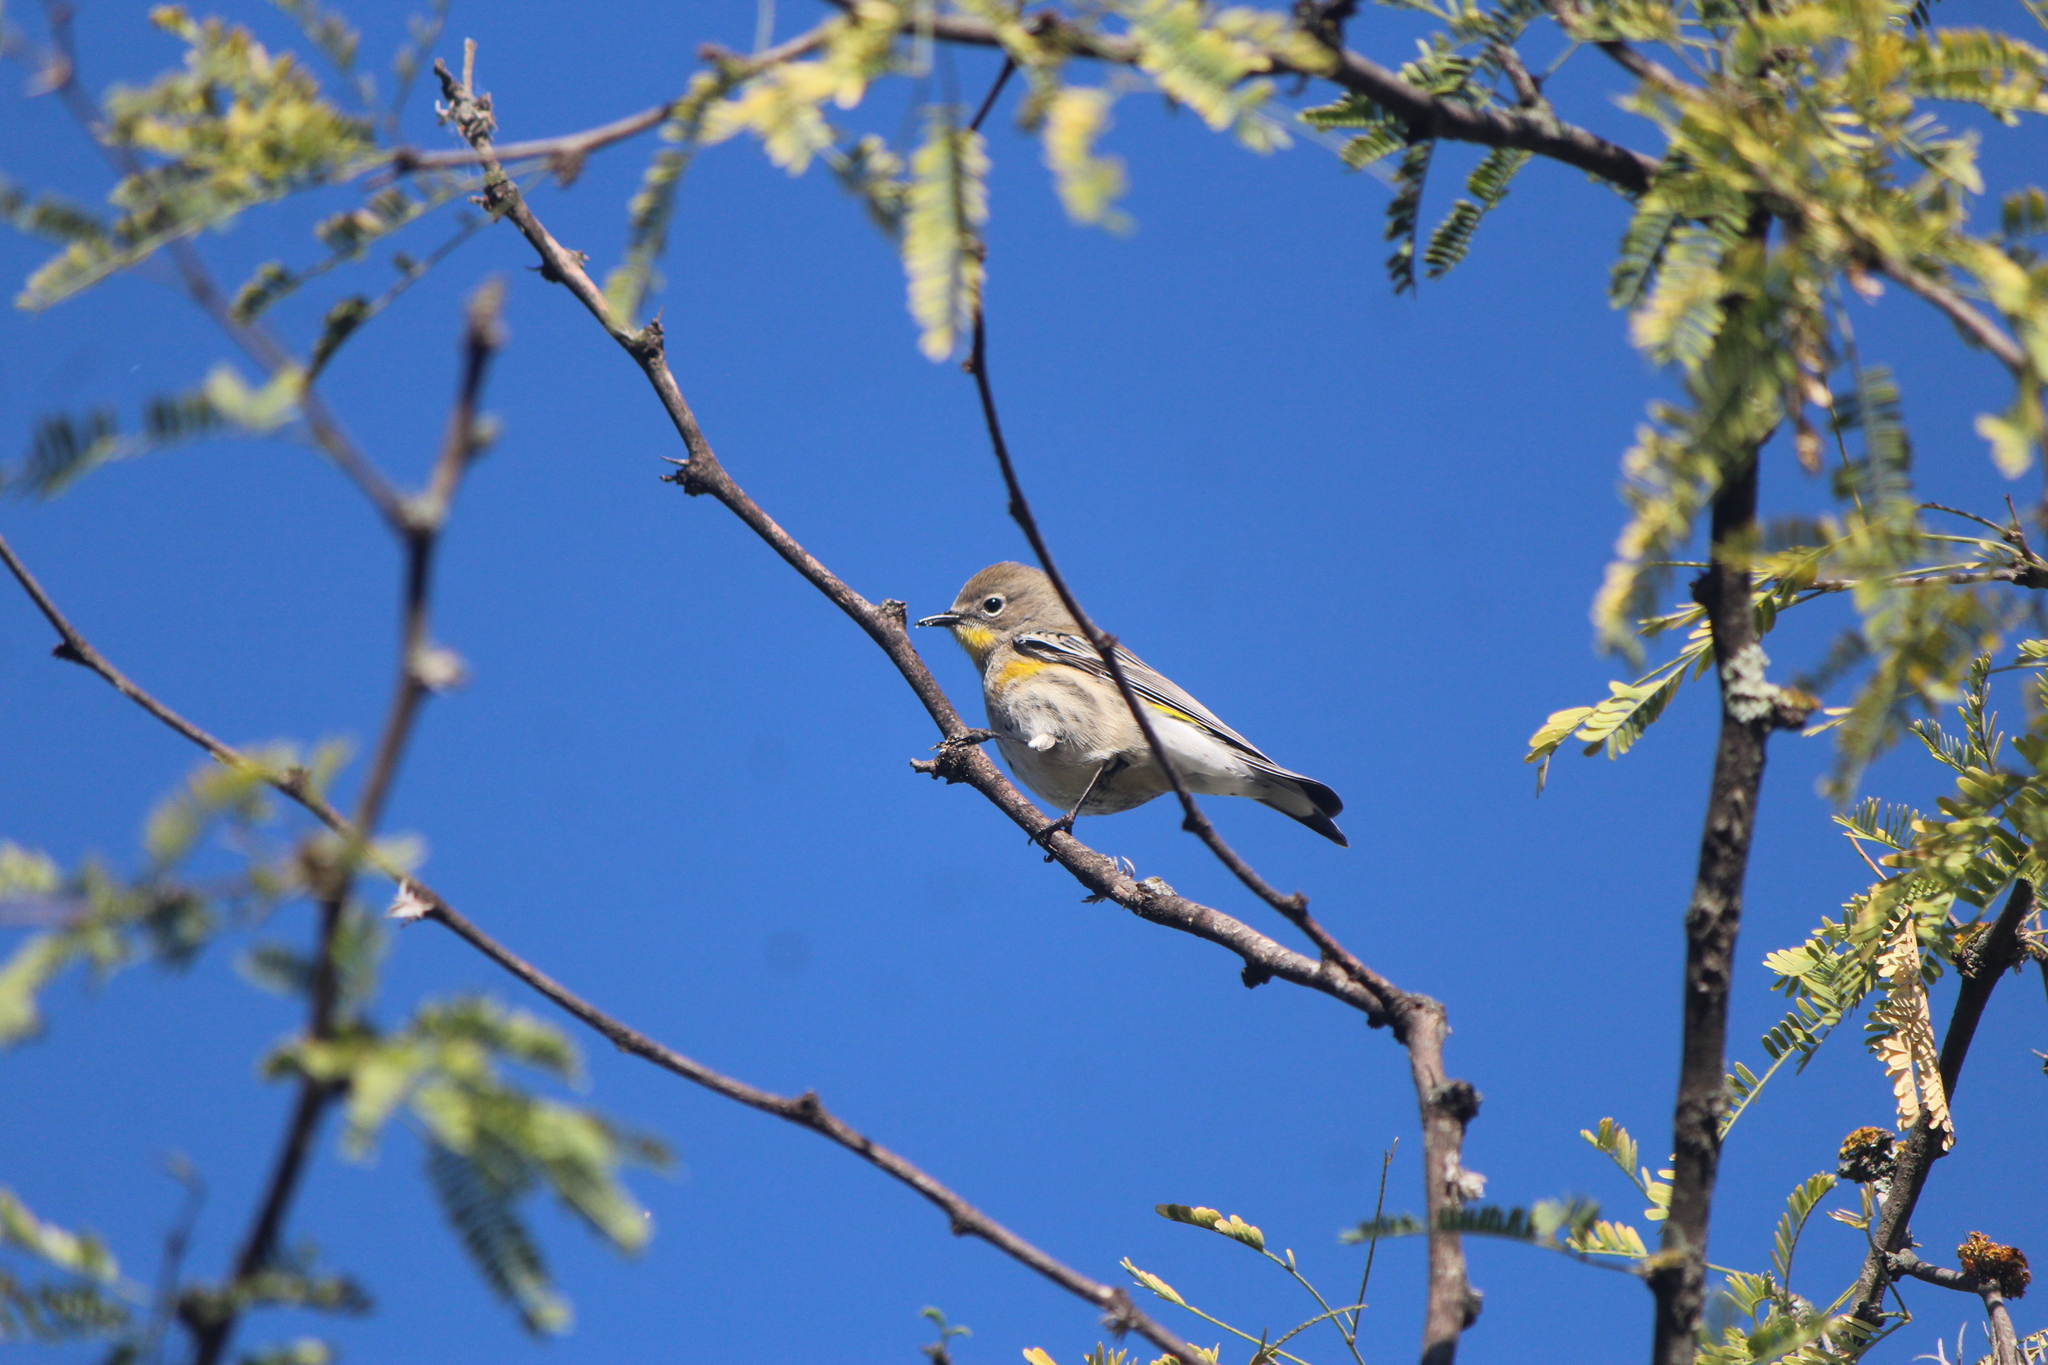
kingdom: Animalia
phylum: Chordata
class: Aves
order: Passeriformes
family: Parulidae
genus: Setophaga
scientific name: Setophaga coronata
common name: Myrtle warbler
